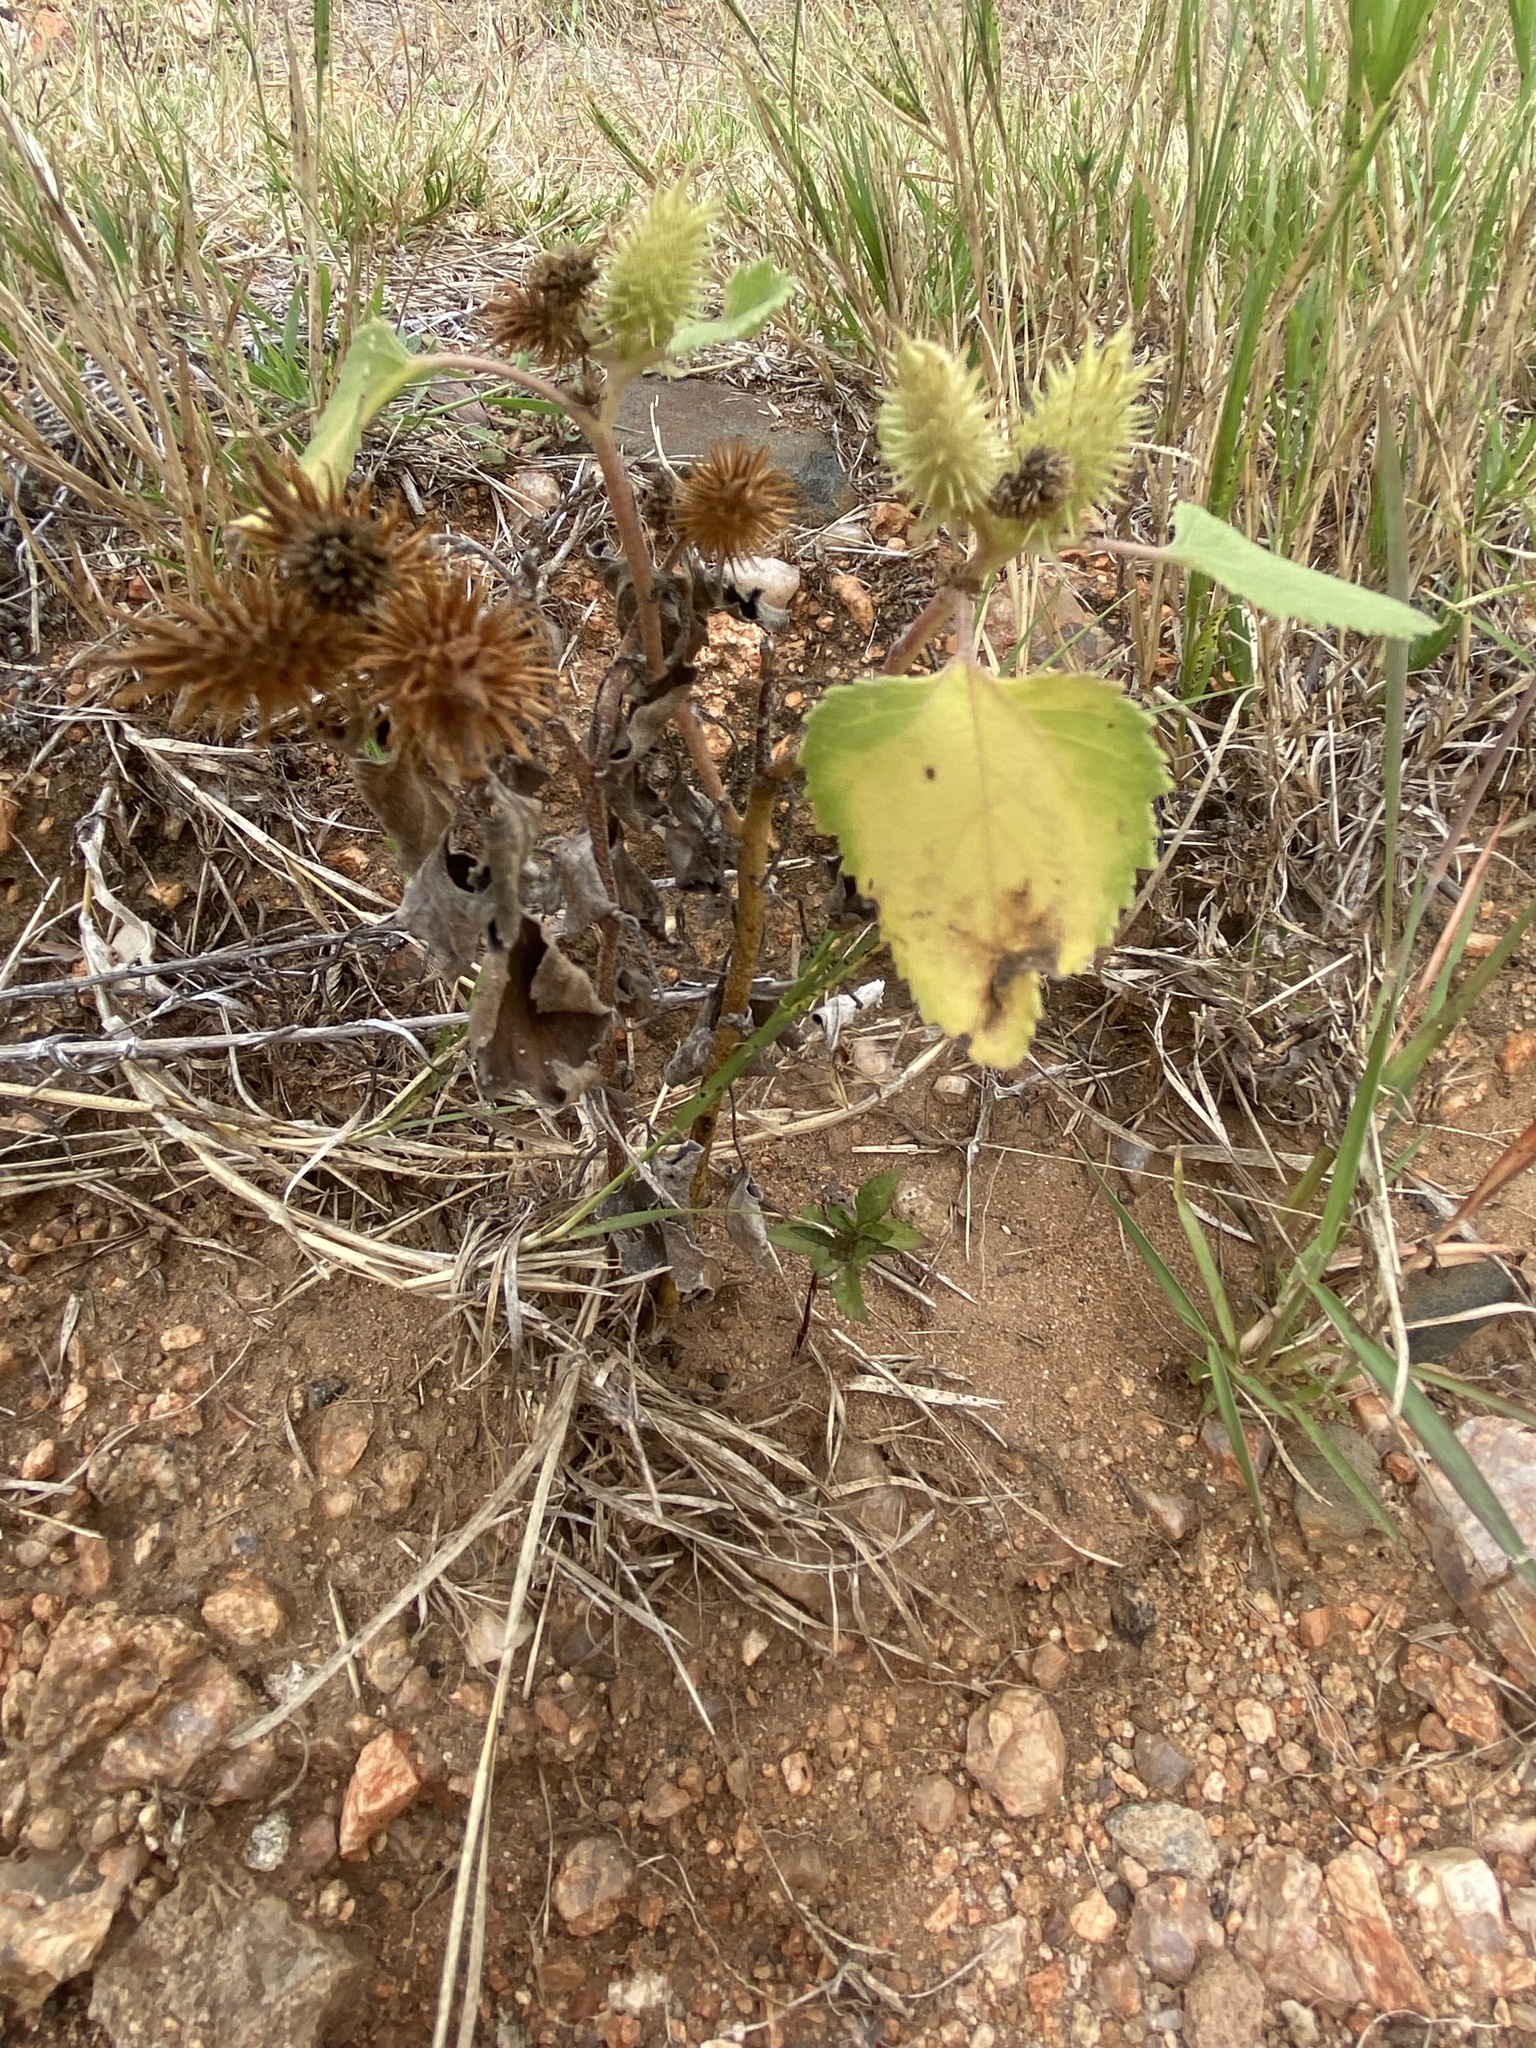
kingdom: Plantae
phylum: Tracheophyta
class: Magnoliopsida
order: Asterales
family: Asteraceae
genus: Xanthium
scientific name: Xanthium strumarium
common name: Rough cocklebur
